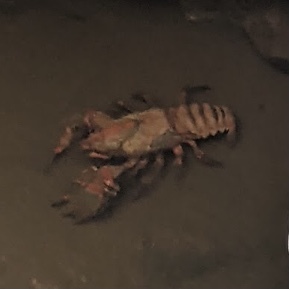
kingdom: Animalia
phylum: Arthropoda
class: Malacostraca
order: Decapoda
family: Parastacidae
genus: Euastacus
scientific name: Euastacus spinifer
